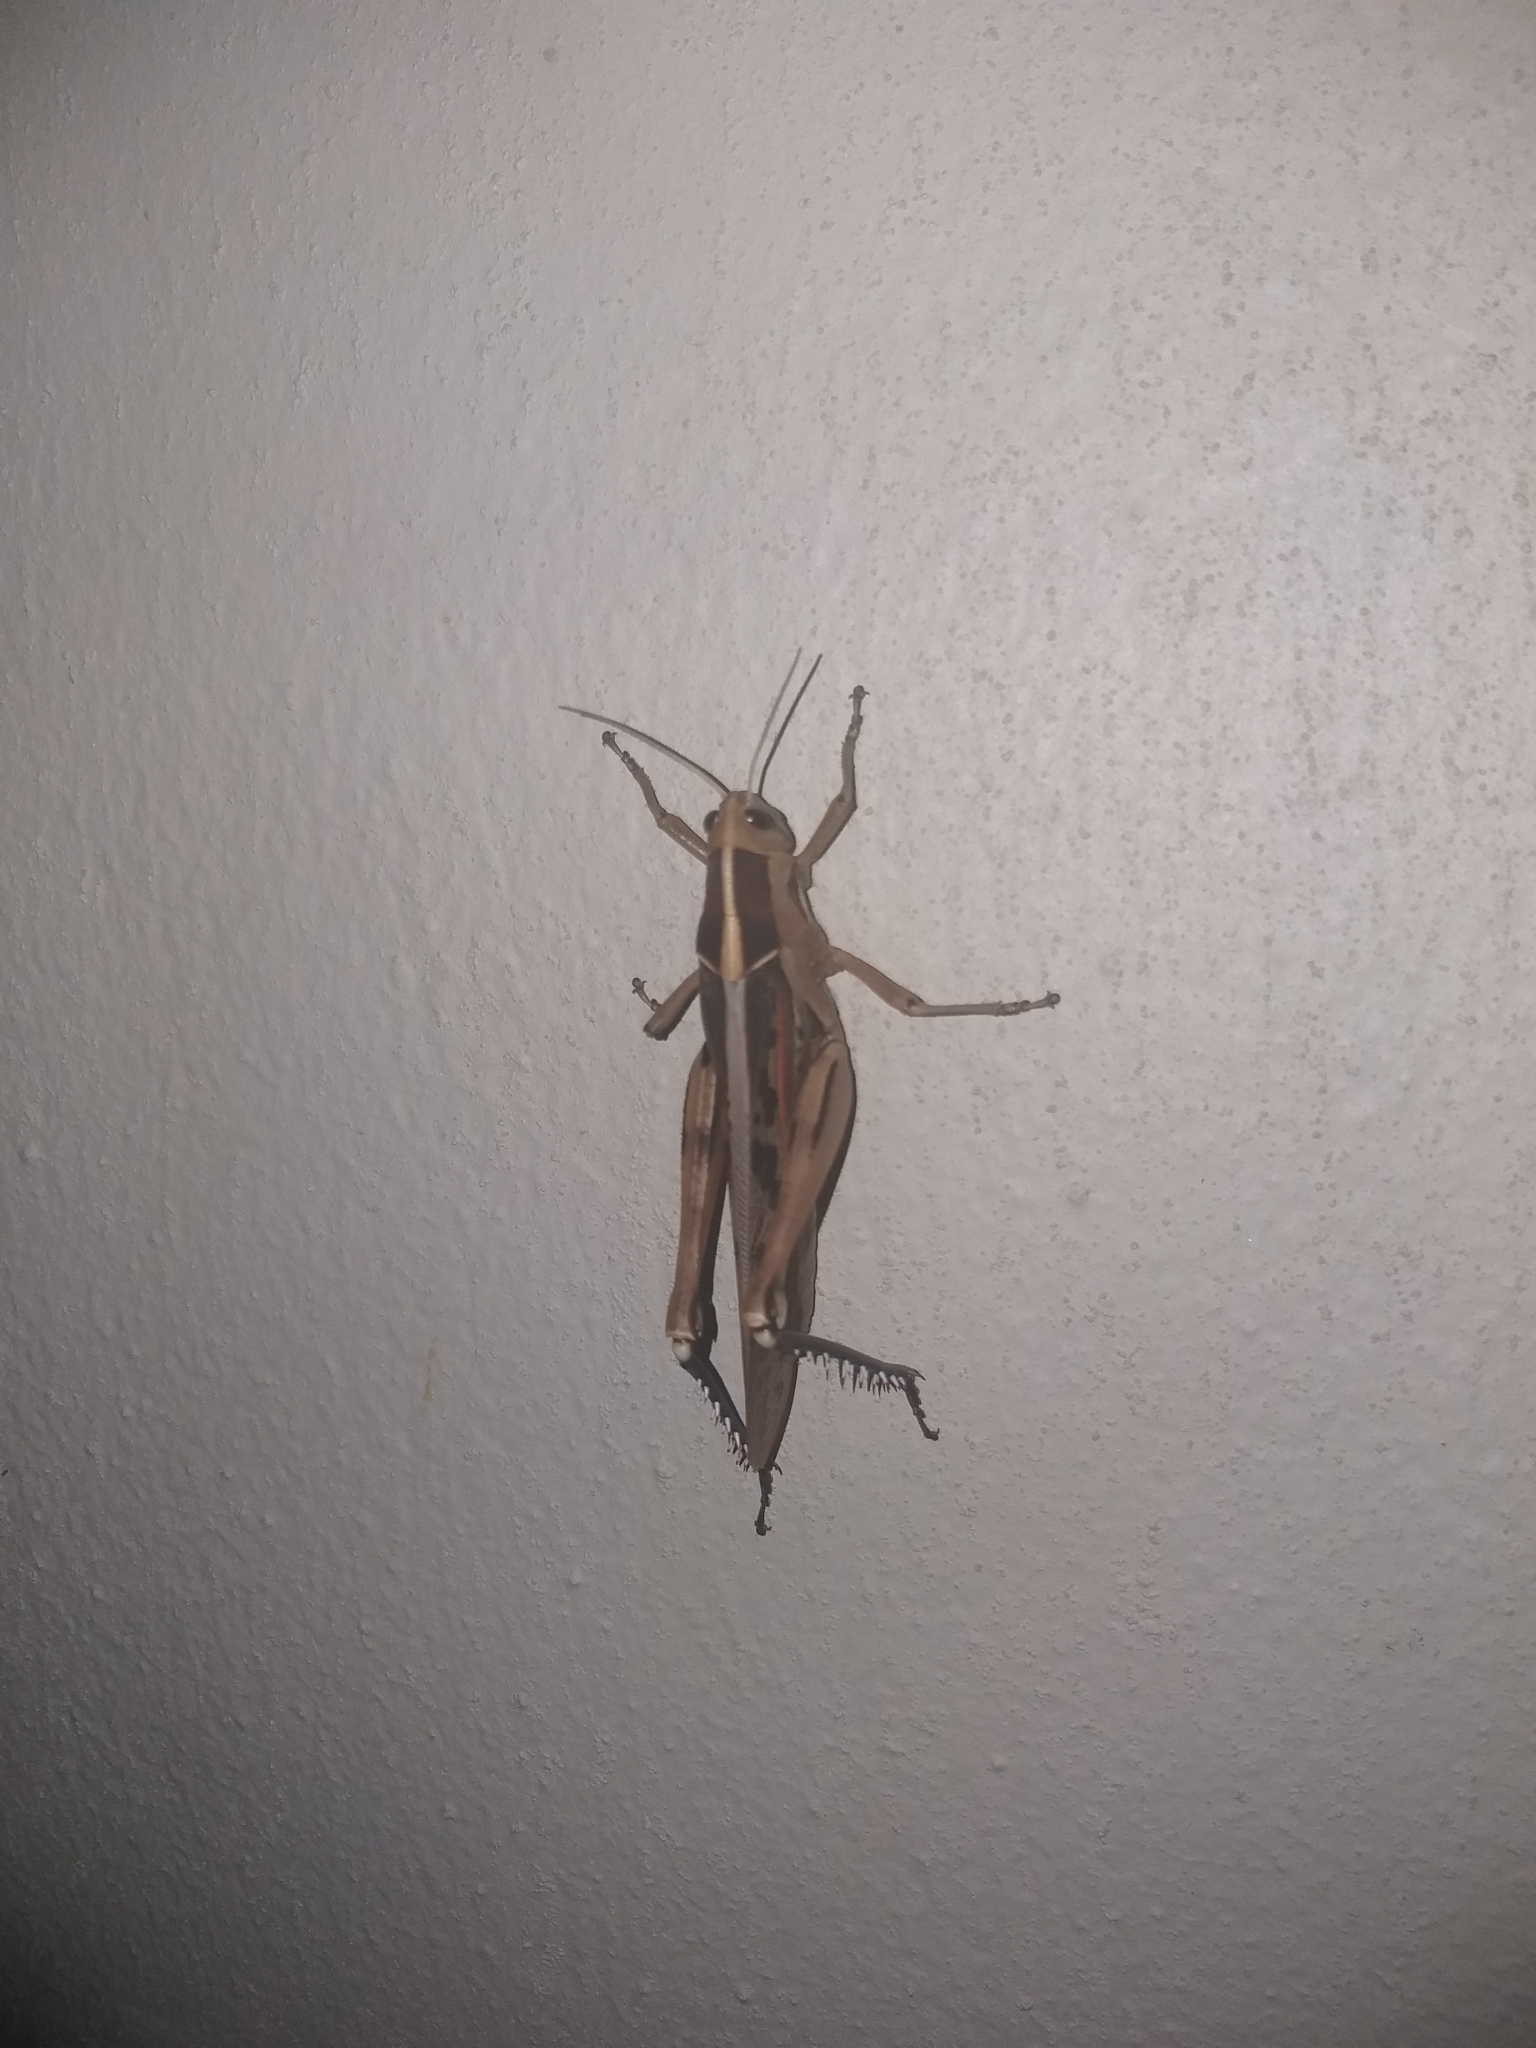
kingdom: Animalia
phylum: Arthropoda
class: Insecta
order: Orthoptera
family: Acrididae
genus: Acanthacris
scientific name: Acanthacris ruficornis
